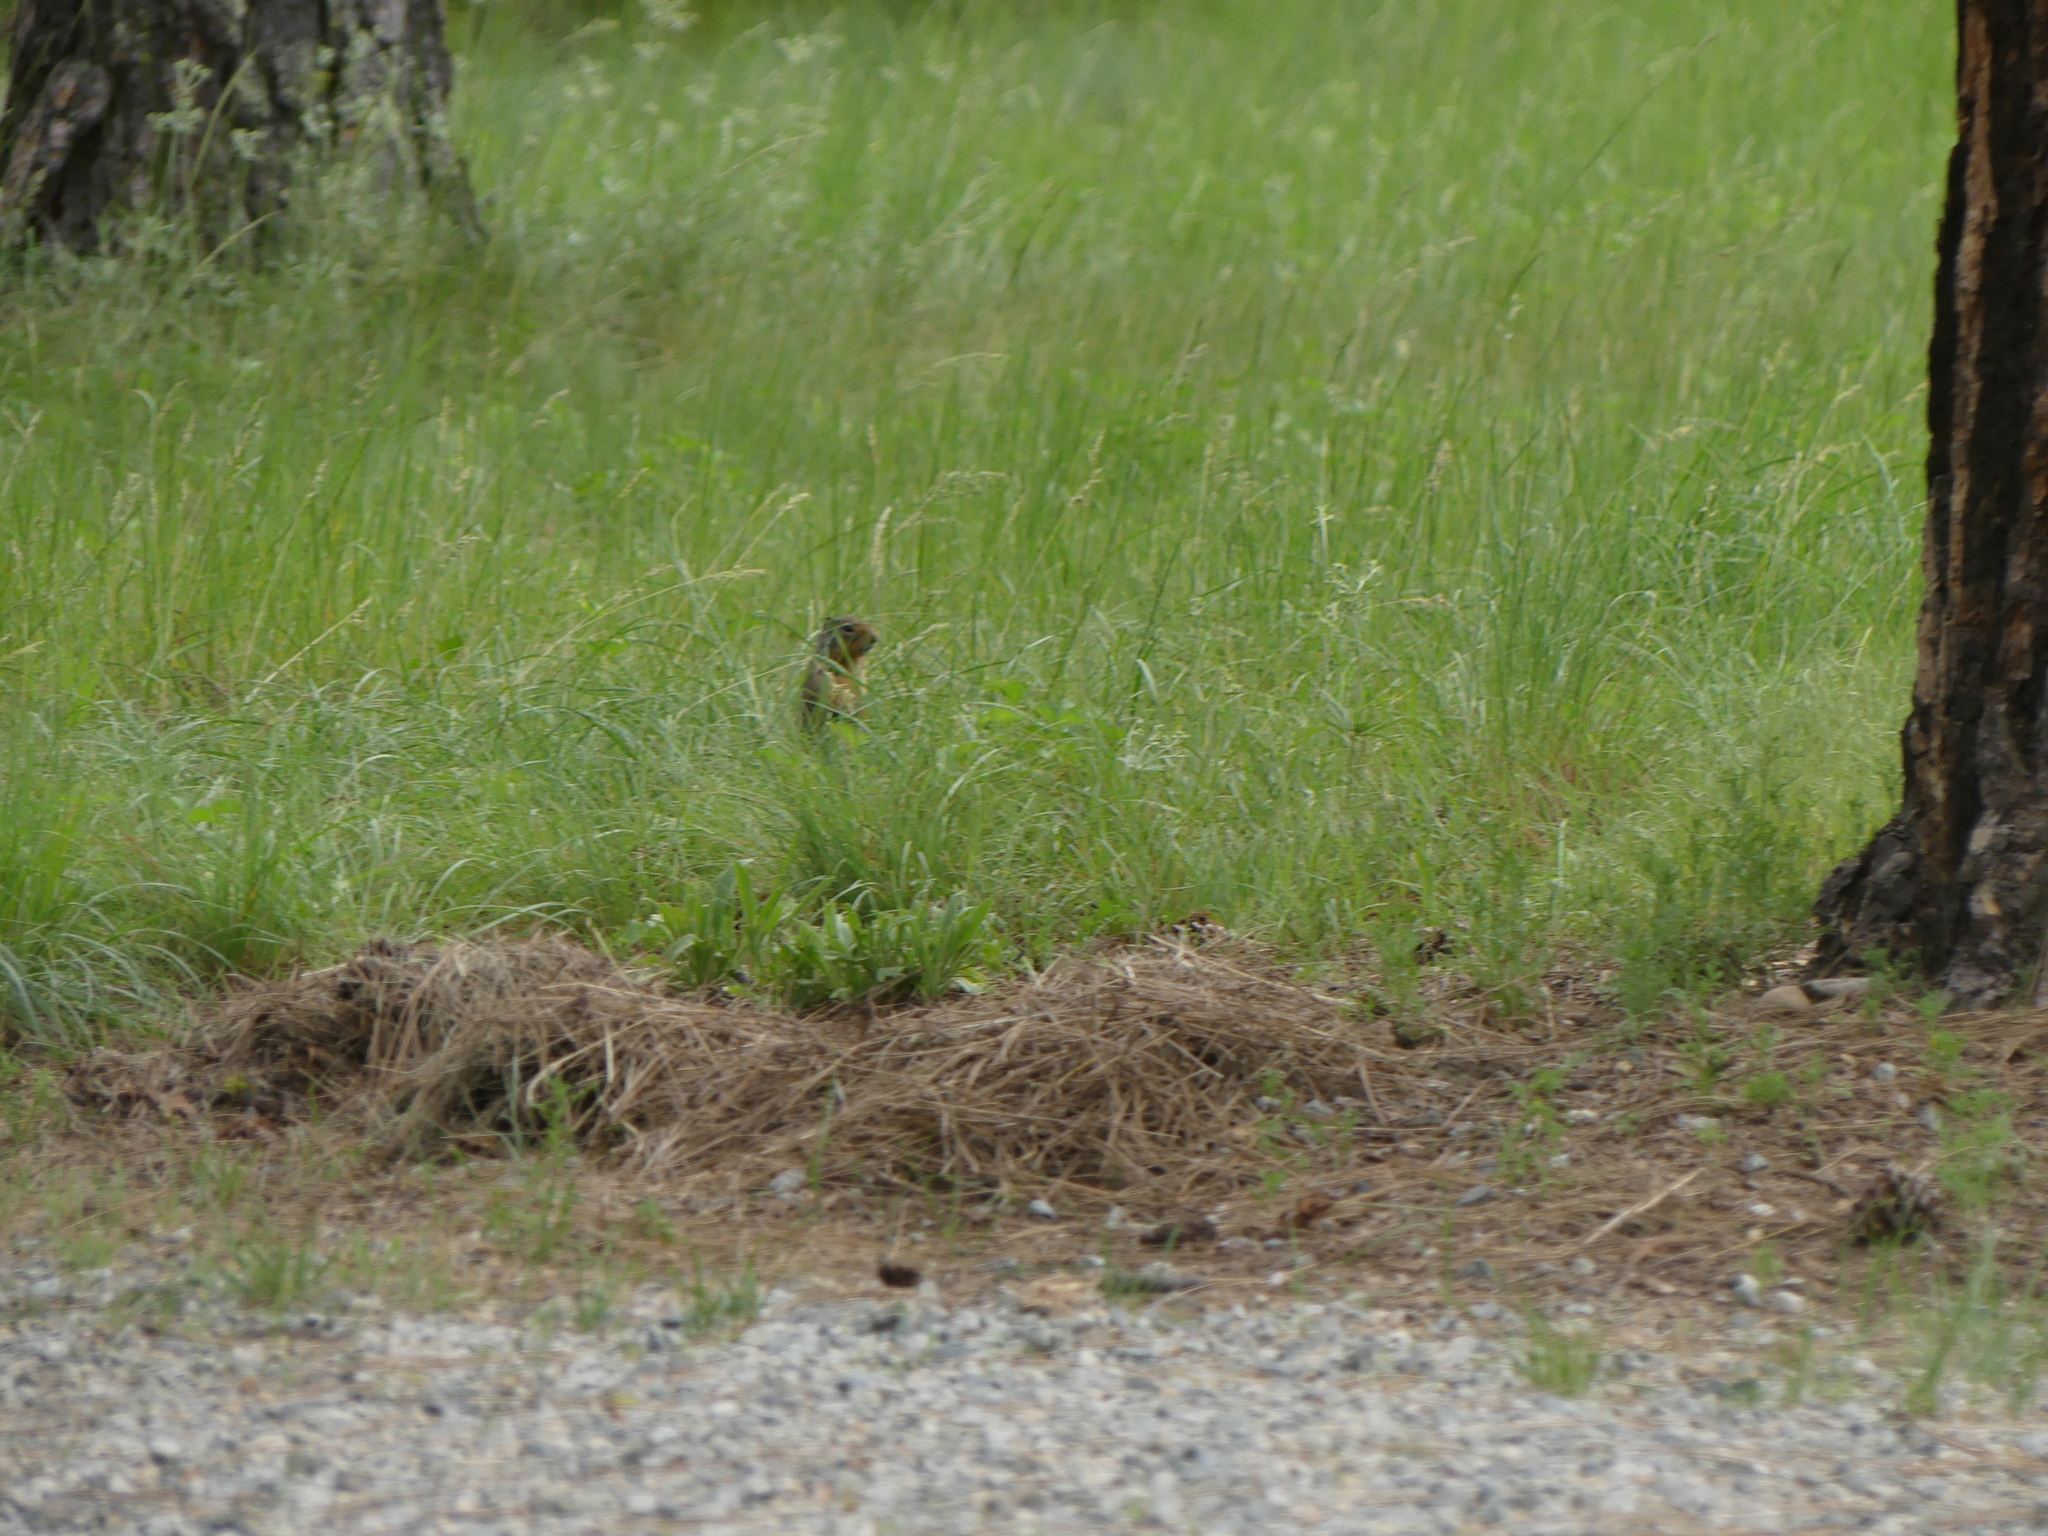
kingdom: Animalia
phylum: Chordata
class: Mammalia
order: Rodentia
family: Sciuridae
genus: Urocitellus
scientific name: Urocitellus columbianus
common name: Columbian ground squirrel
